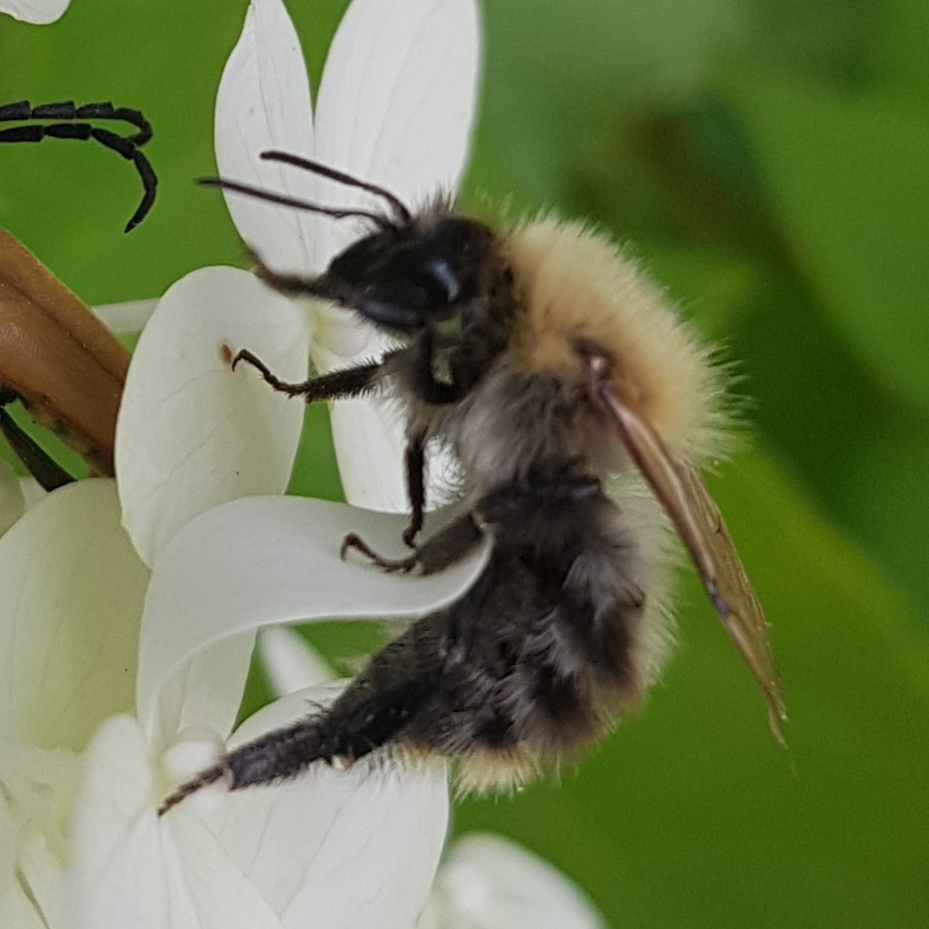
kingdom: Animalia
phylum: Arthropoda
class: Insecta
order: Hymenoptera
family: Apidae
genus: Bombus
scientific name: Bombus pascuorum
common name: Common carder bee
